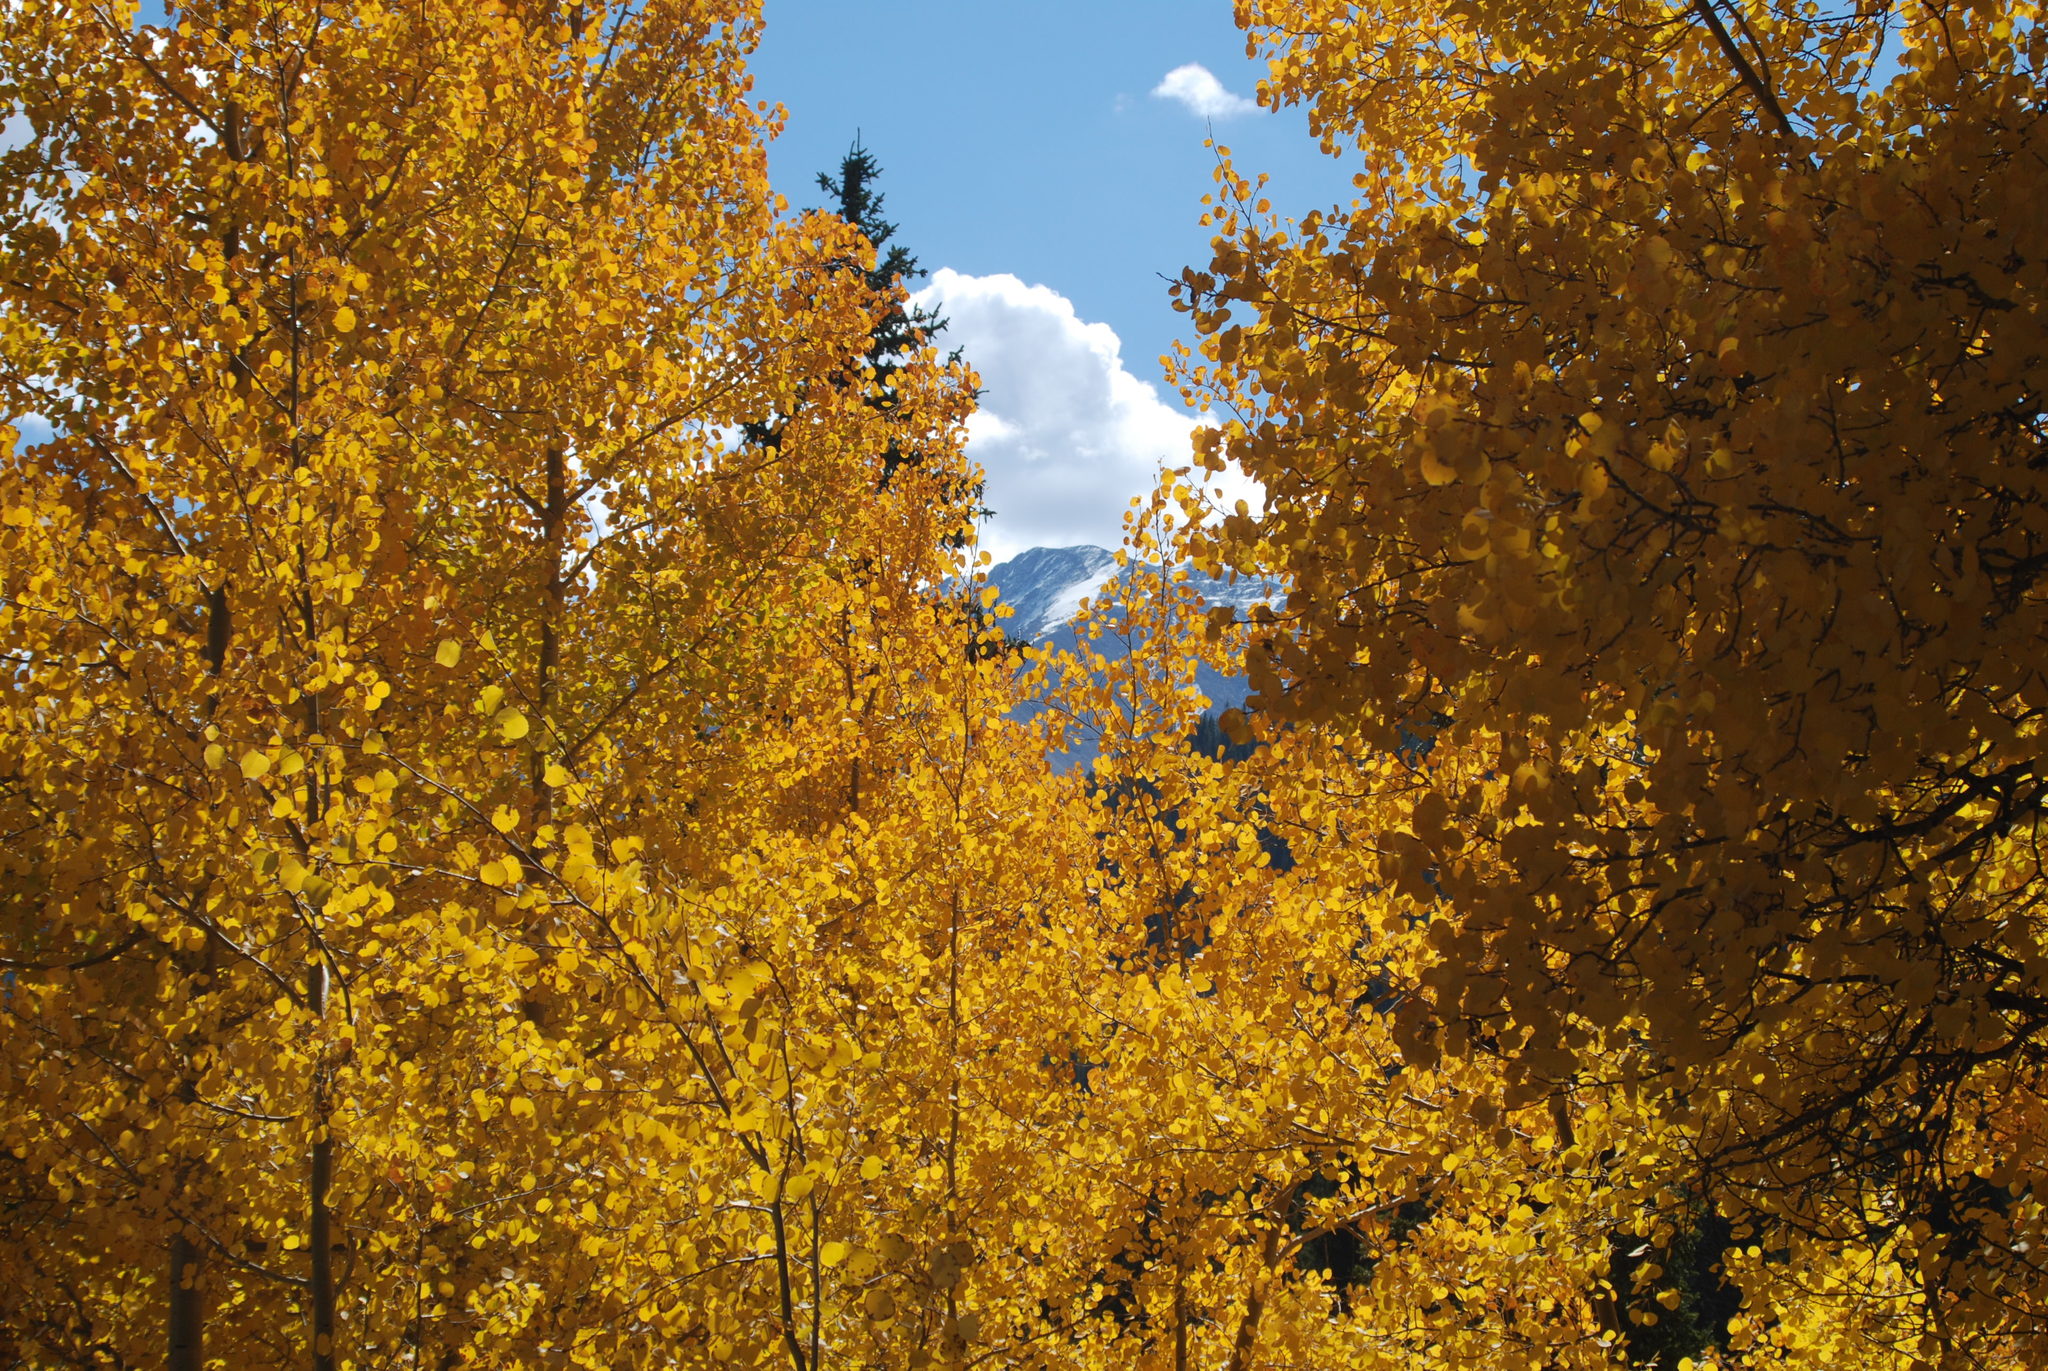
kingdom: Plantae
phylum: Tracheophyta
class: Magnoliopsida
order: Malpighiales
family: Salicaceae
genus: Populus
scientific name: Populus tremuloides
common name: Quaking aspen
